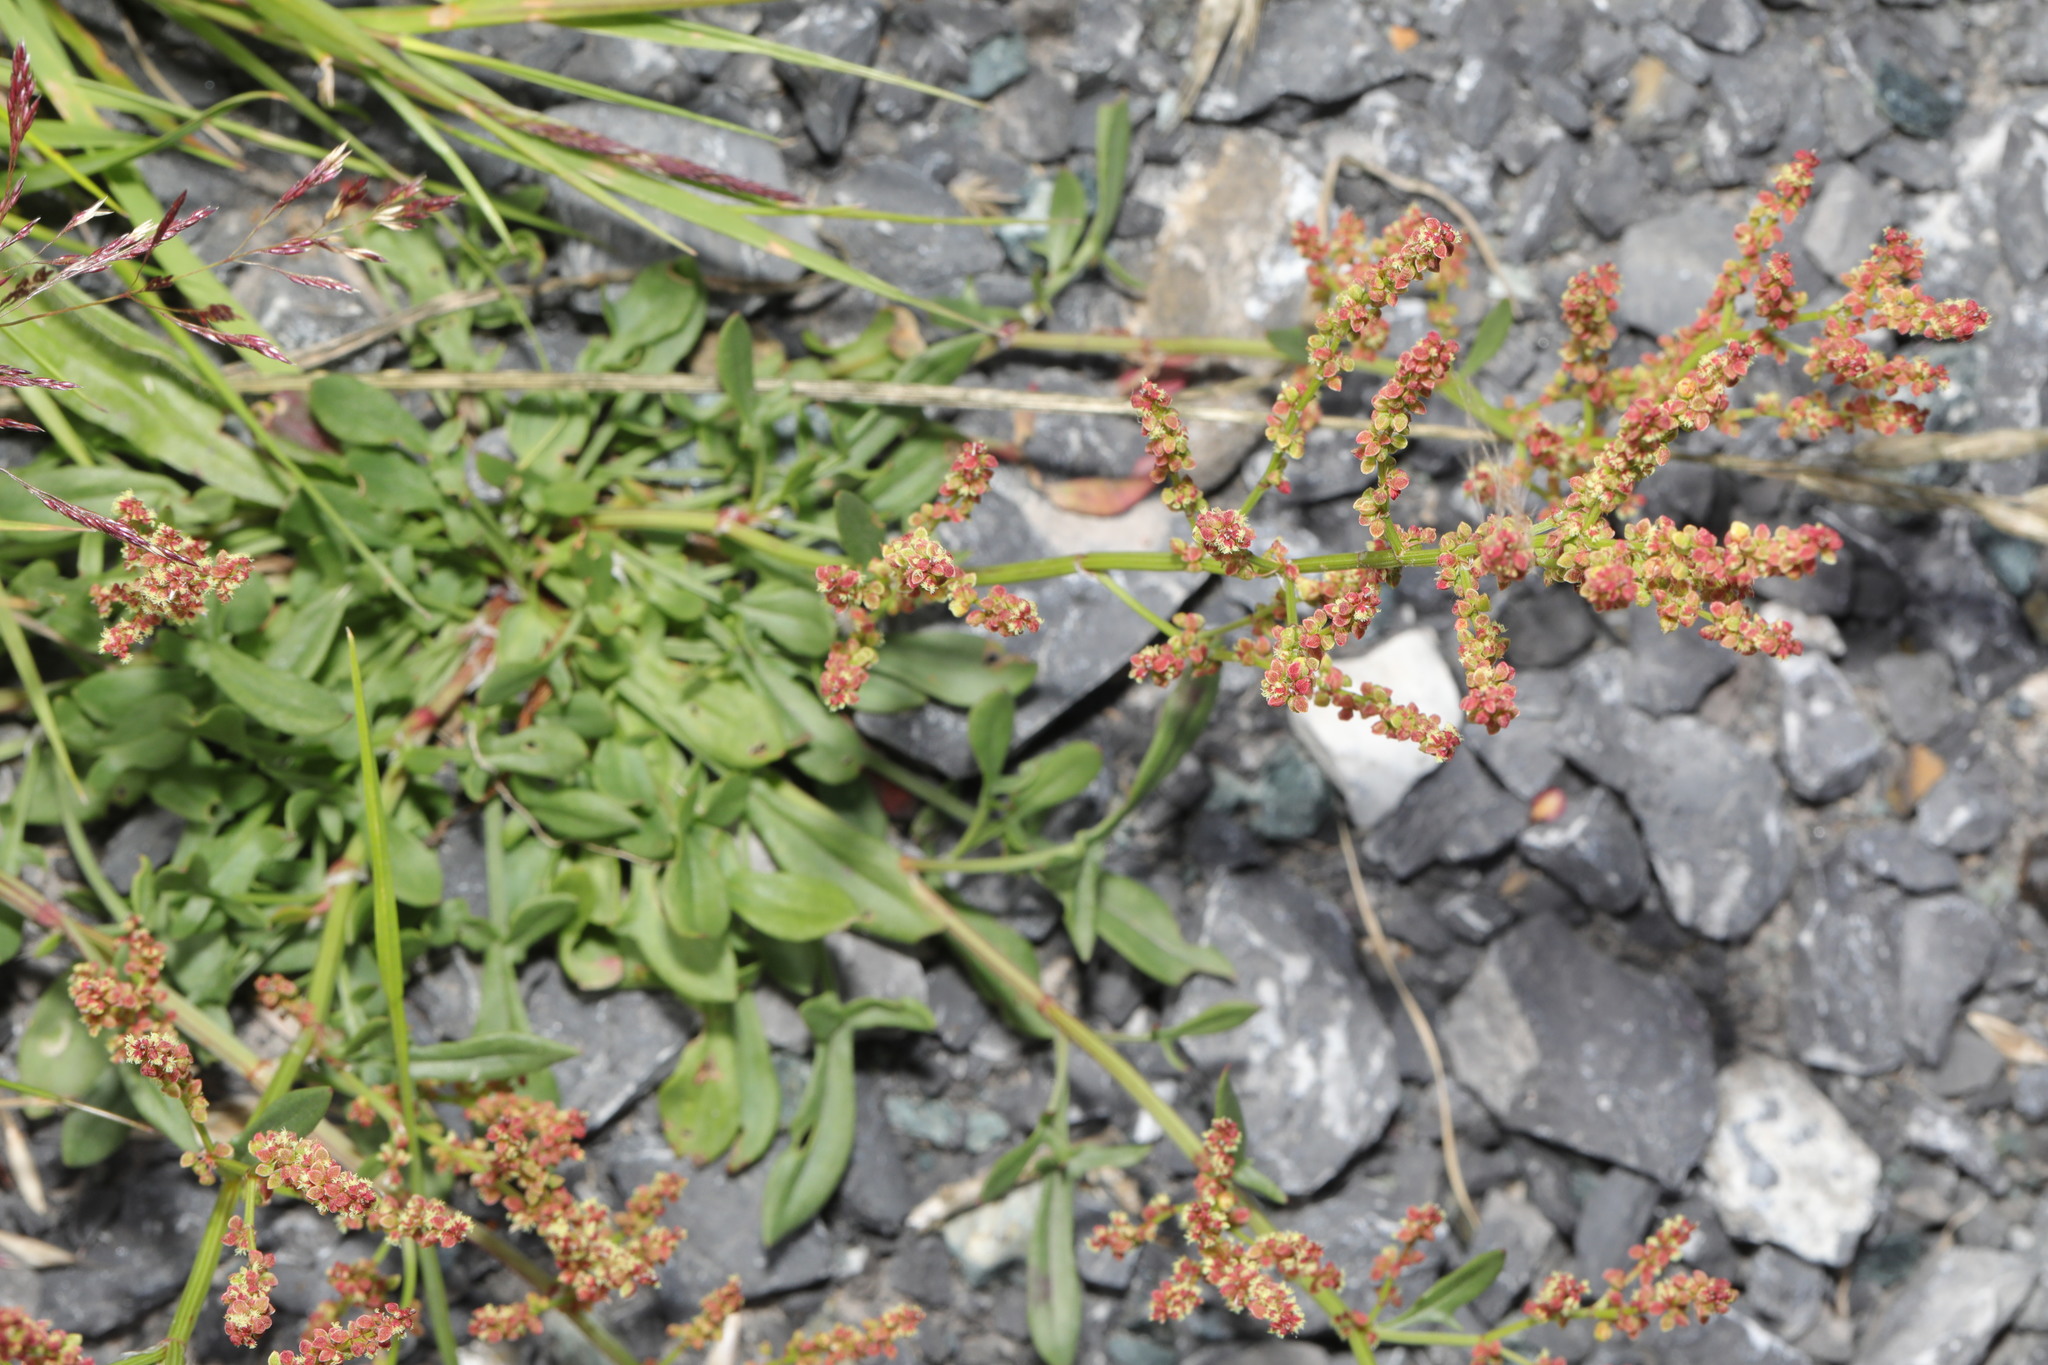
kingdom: Plantae
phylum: Tracheophyta
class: Magnoliopsida
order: Caryophyllales
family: Polygonaceae
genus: Rumex
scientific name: Rumex acetosella
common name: Common sheep sorrel
